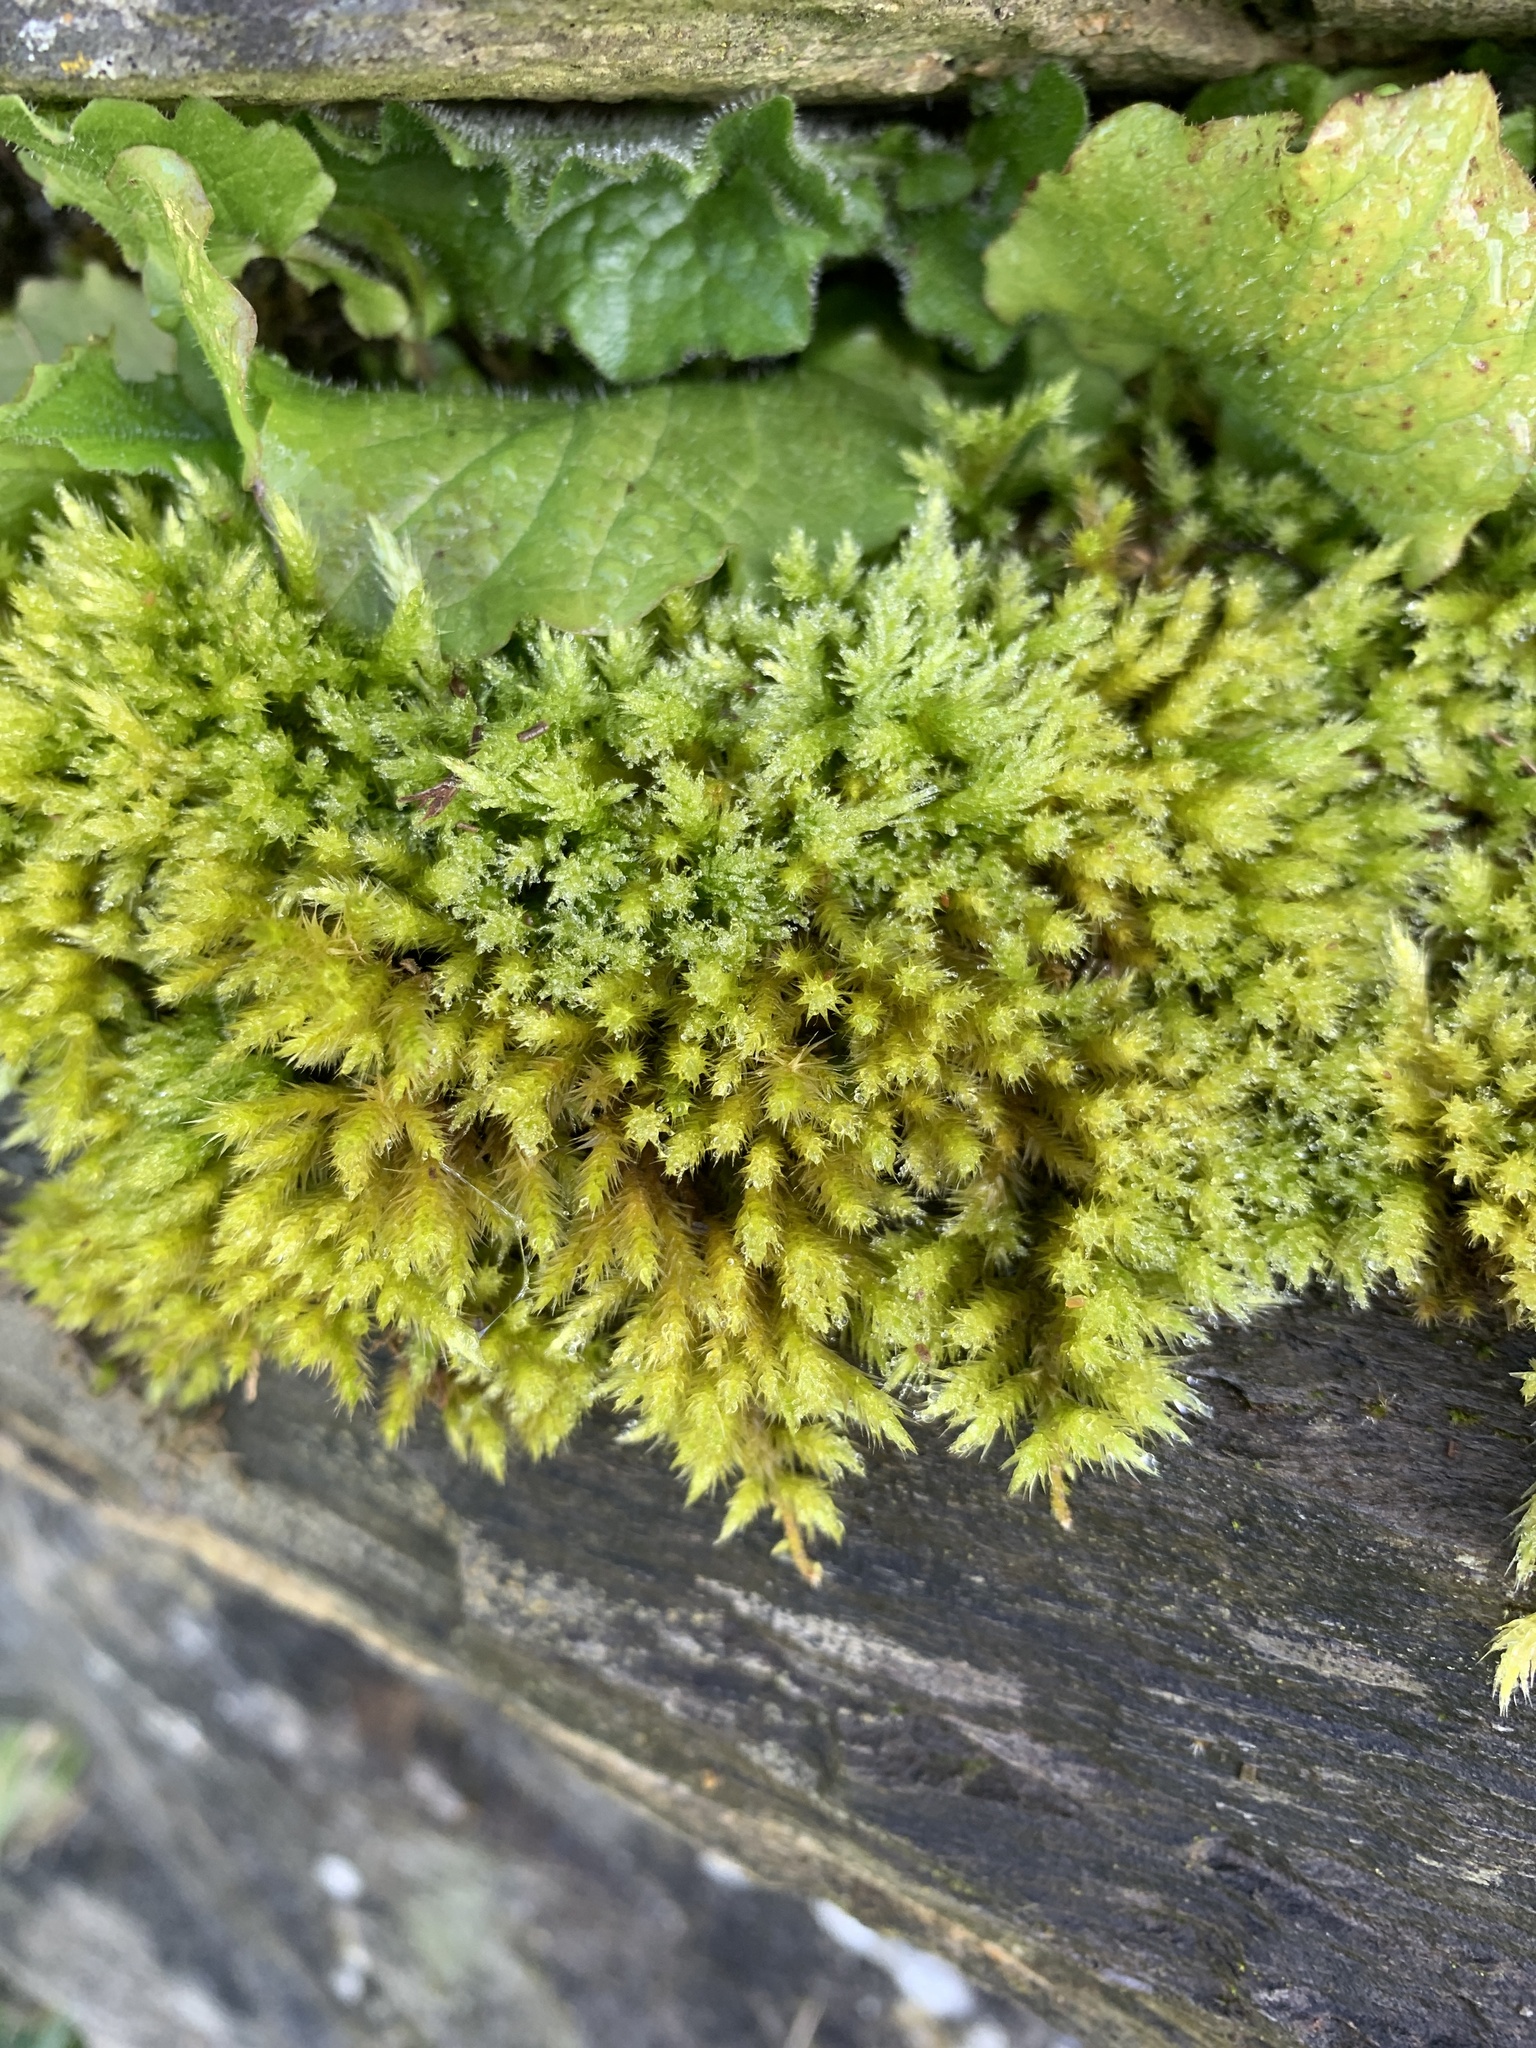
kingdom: Plantae
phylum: Bryophyta
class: Bryopsida
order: Hypnales
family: Brachytheciaceae
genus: Homalothecium
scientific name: Homalothecium sericeum
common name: Silky wall feather-moss
